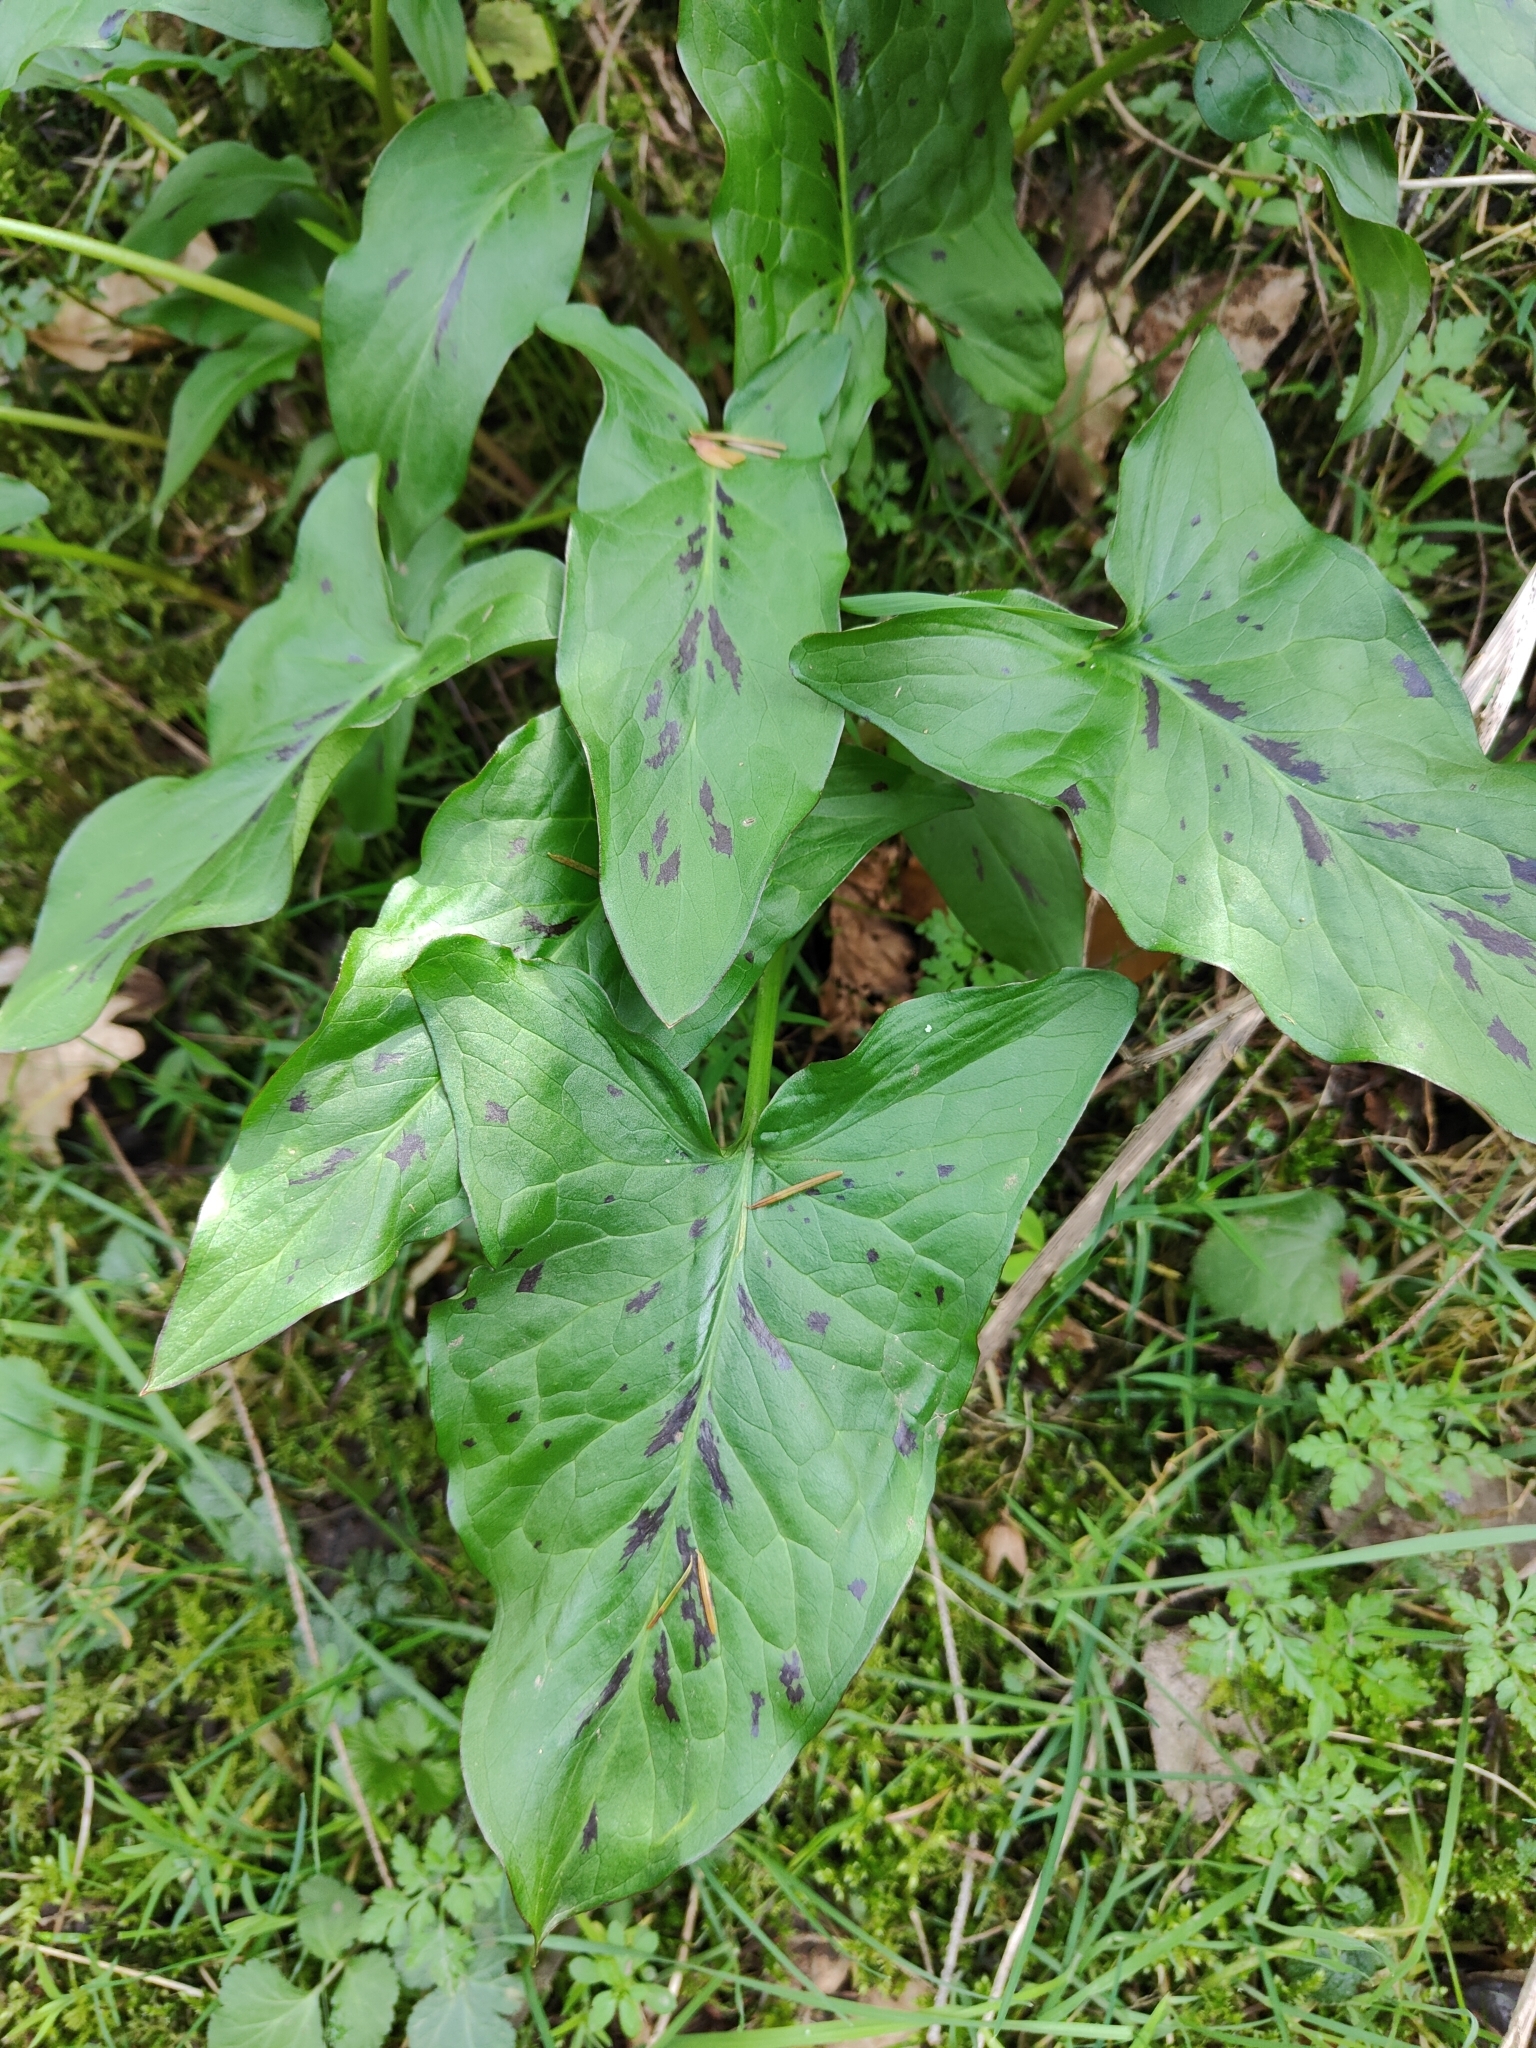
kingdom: Plantae
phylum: Tracheophyta
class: Liliopsida
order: Alismatales
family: Araceae
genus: Arum
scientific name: Arum maculatum
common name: Lords-and-ladies
